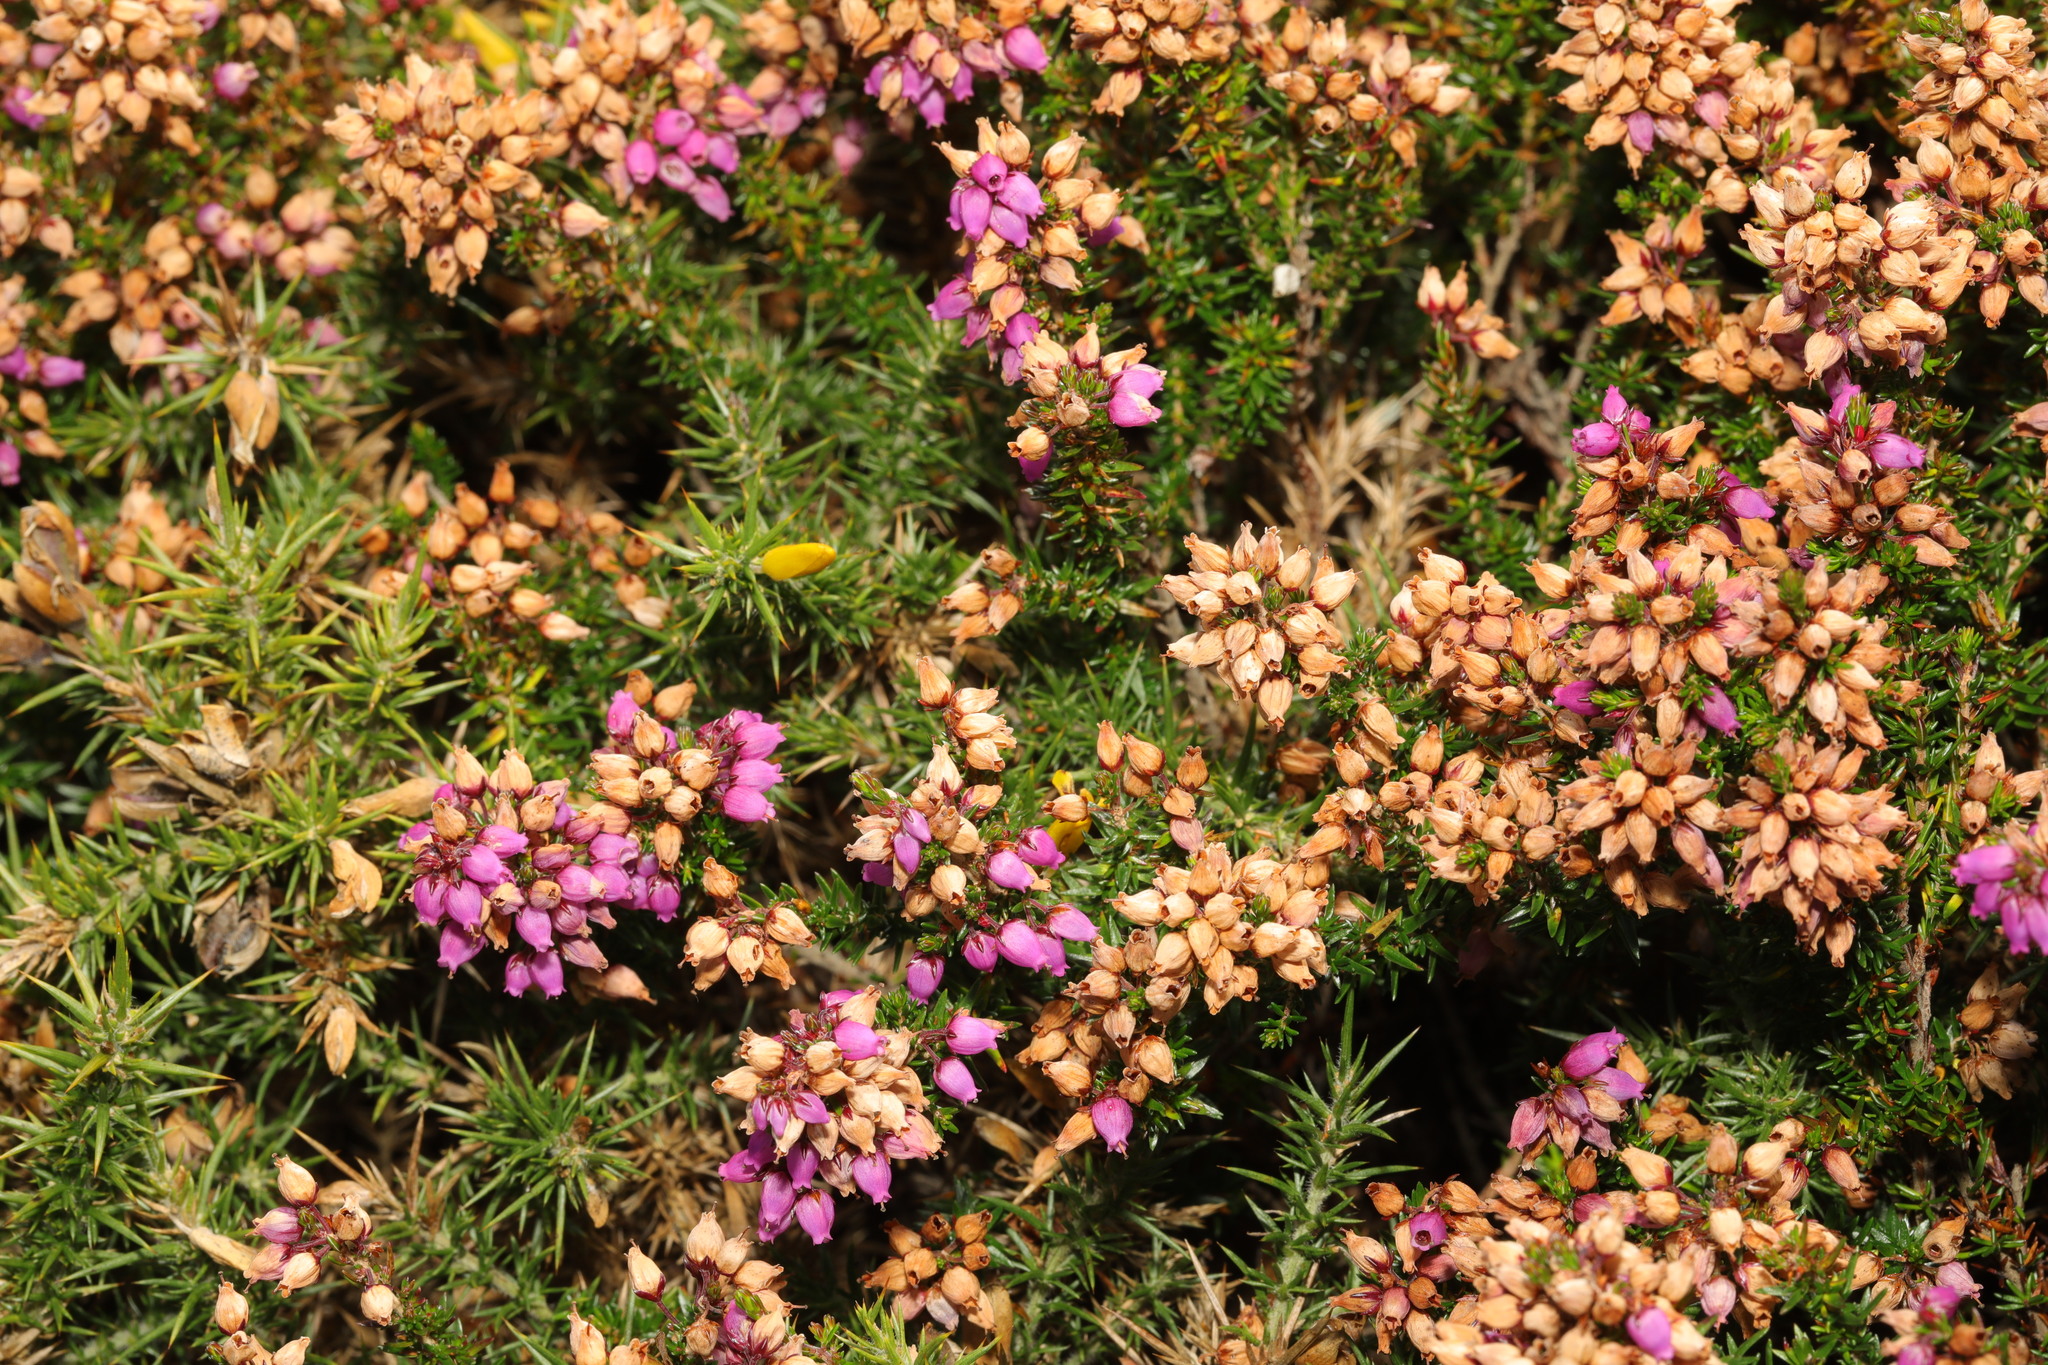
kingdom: Plantae
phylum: Tracheophyta
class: Magnoliopsida
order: Ericales
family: Ericaceae
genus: Erica
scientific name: Erica cinerea
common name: Bell heather
